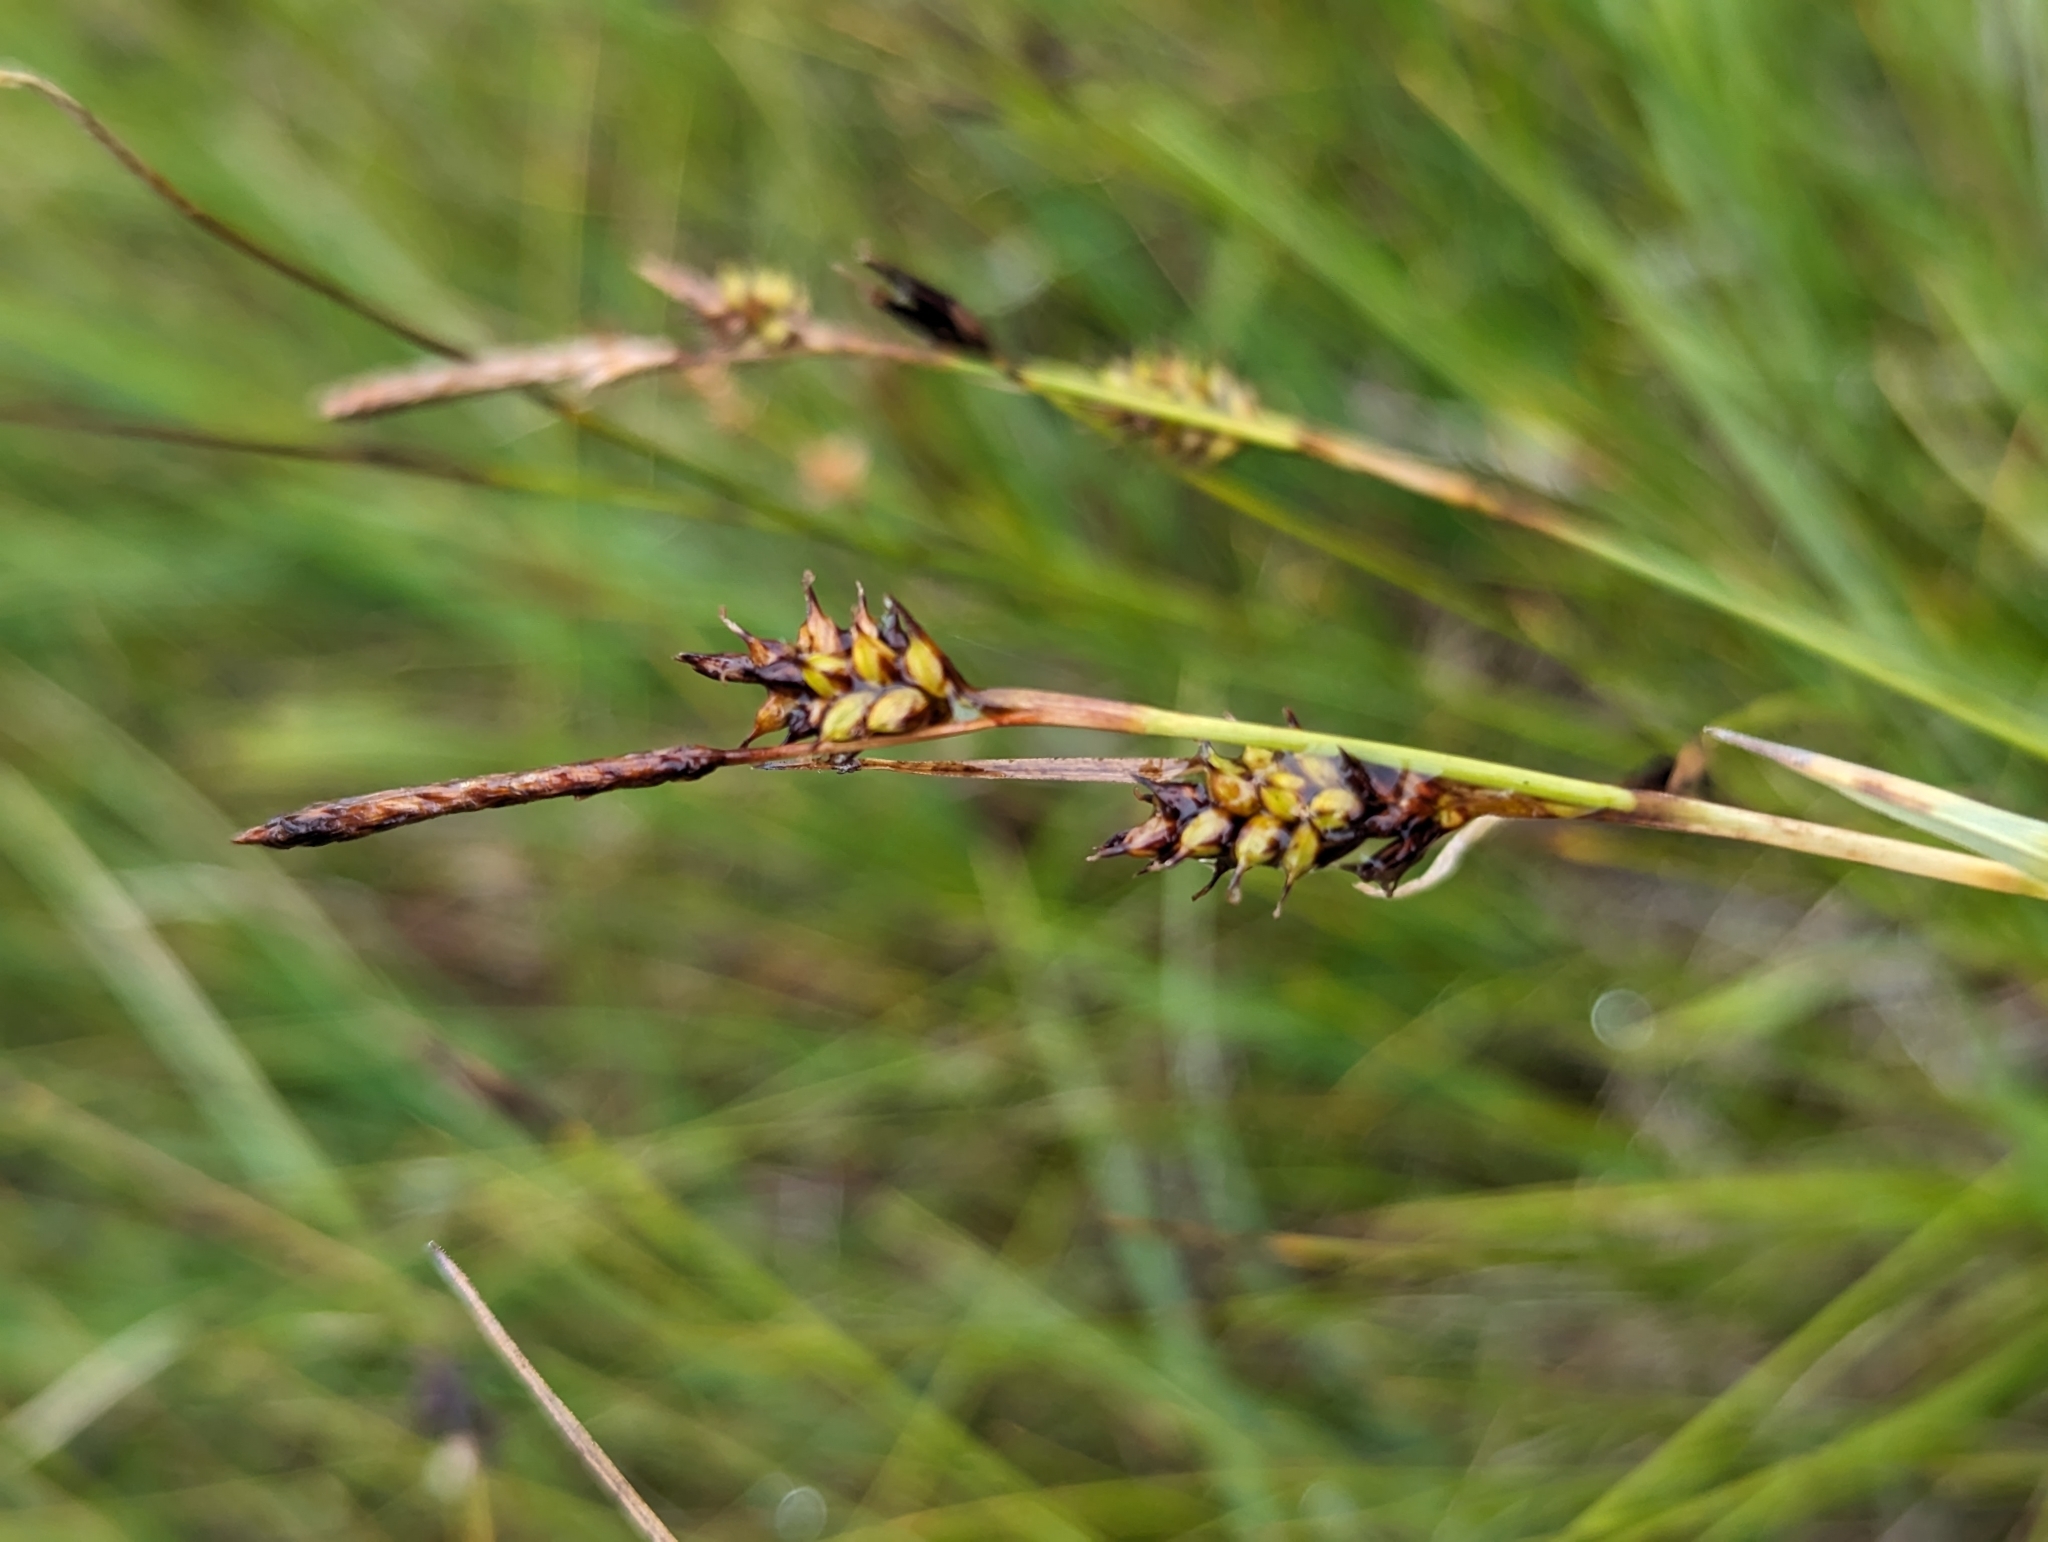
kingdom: Plantae
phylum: Tracheophyta
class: Liliopsida
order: Poales
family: Cyperaceae
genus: Carex
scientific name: Carex panicea
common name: Carnation sedge
